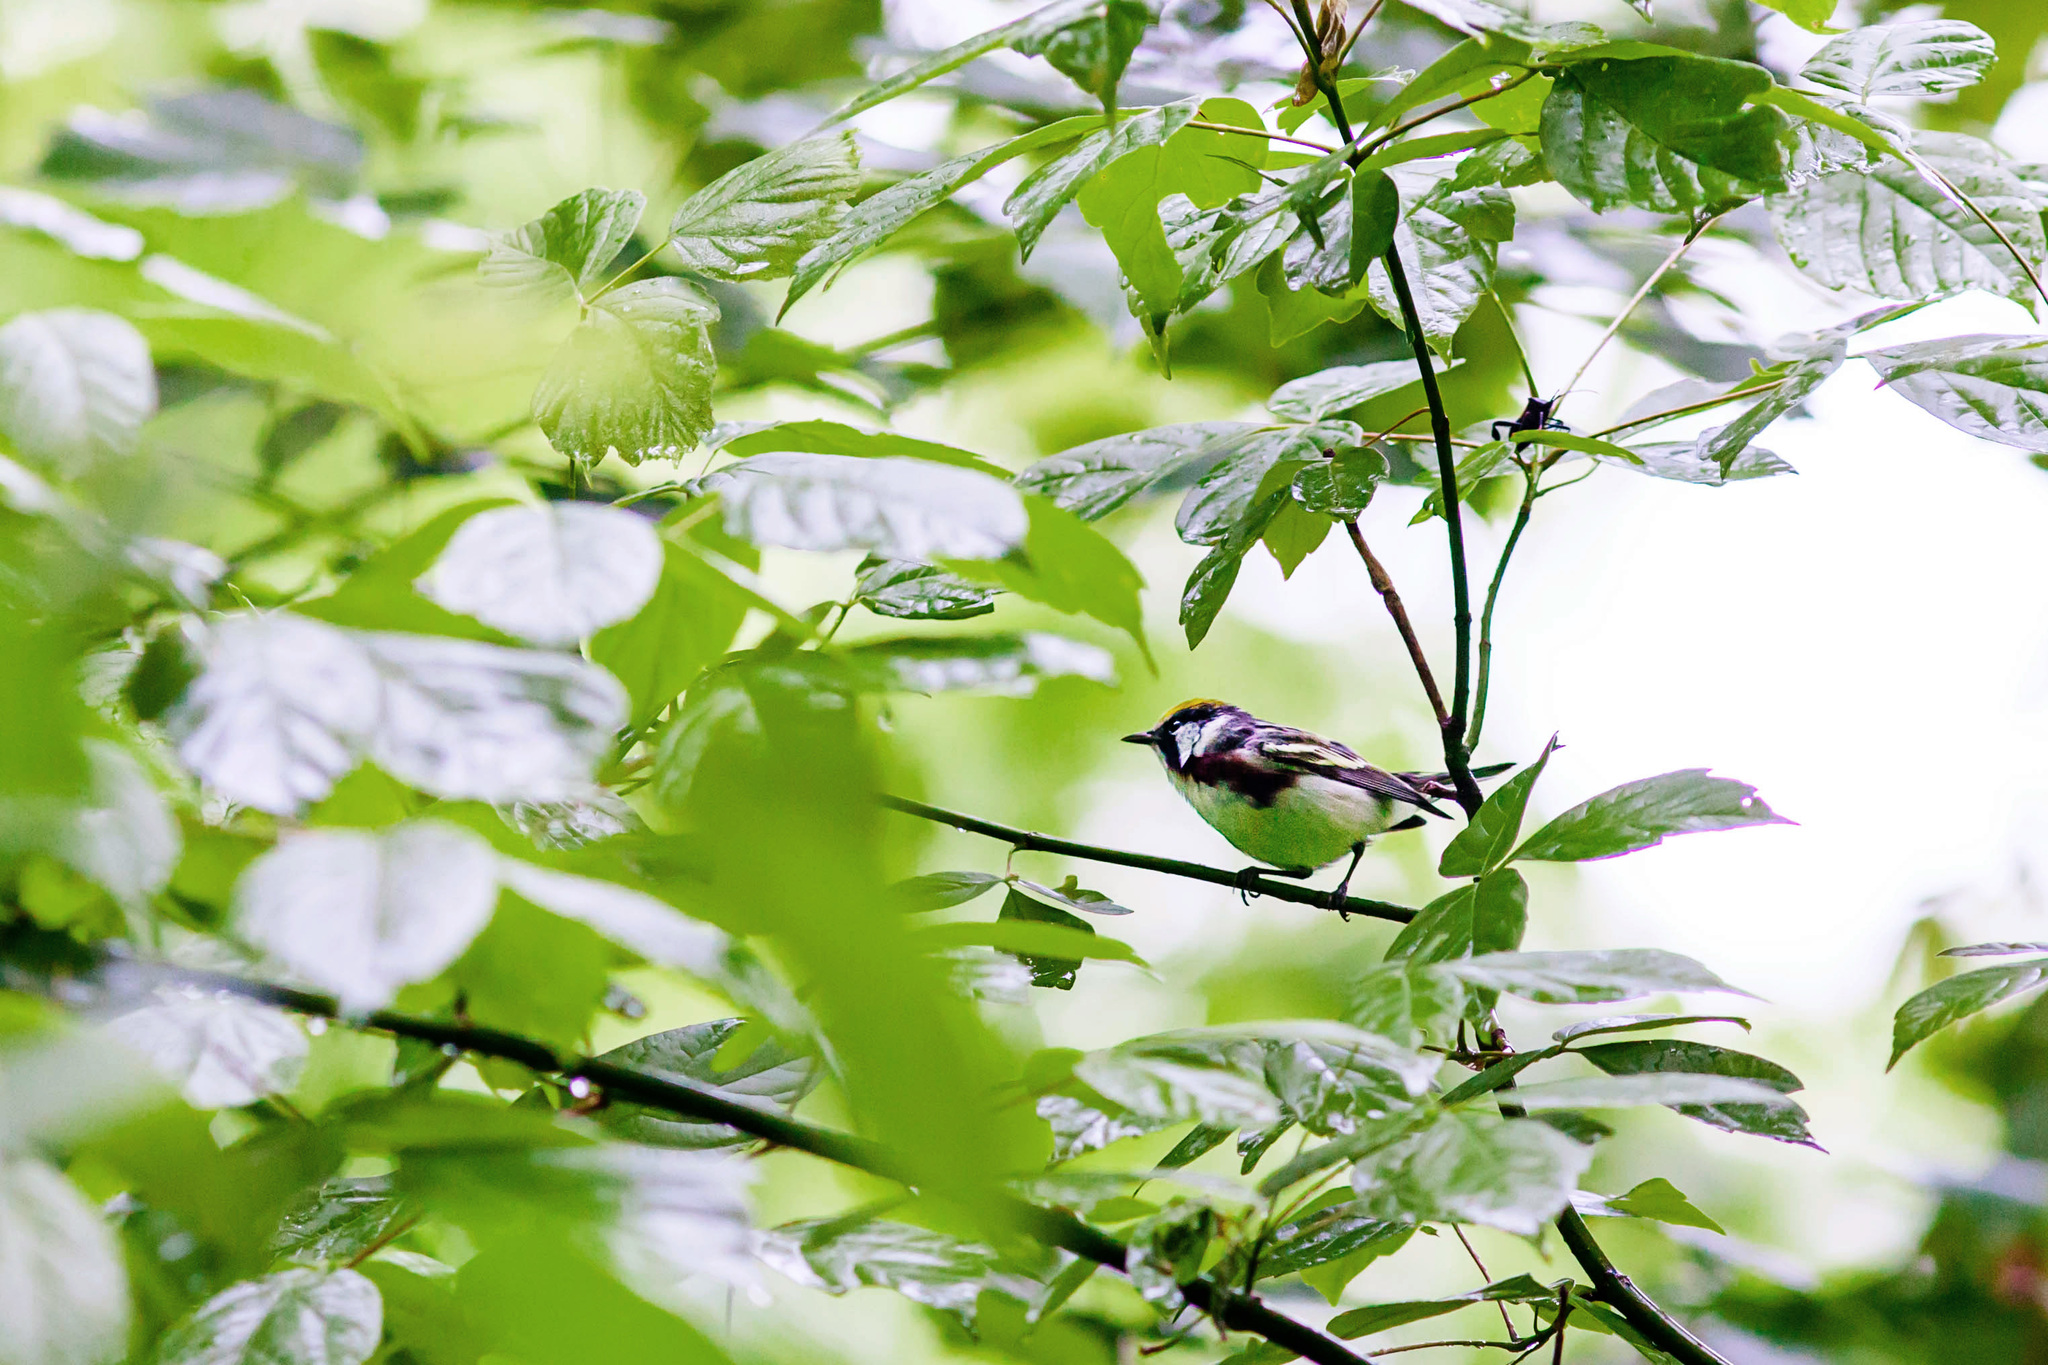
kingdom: Animalia
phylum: Chordata
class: Aves
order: Passeriformes
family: Parulidae
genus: Setophaga
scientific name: Setophaga pensylvanica
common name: Chestnut-sided warbler
